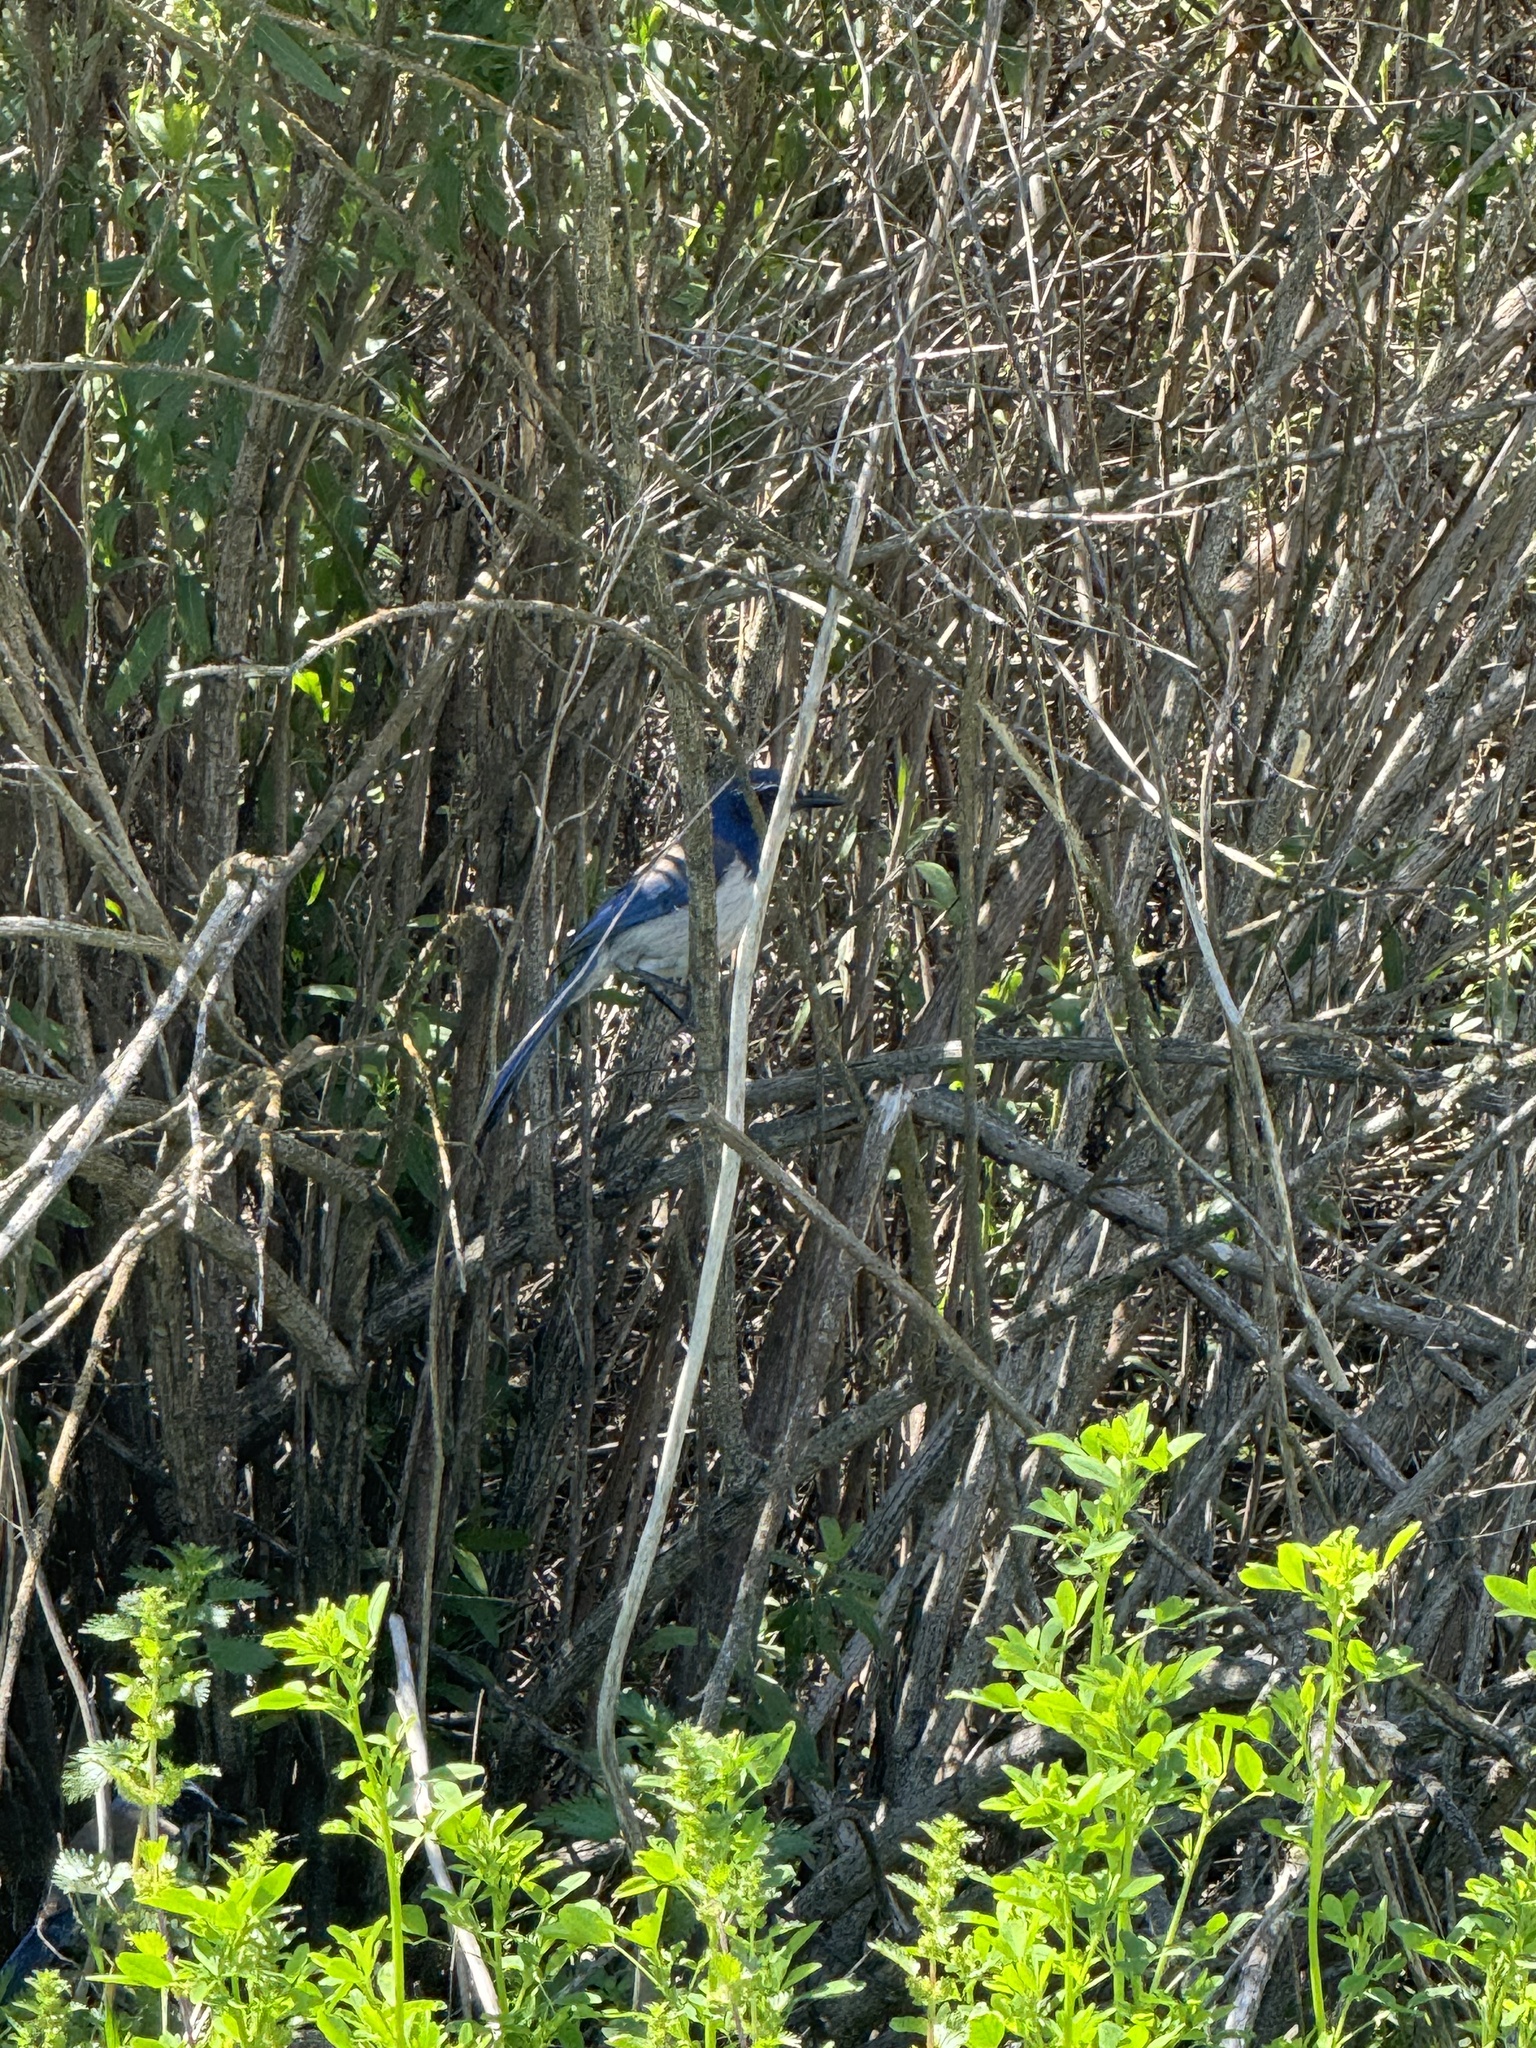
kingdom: Animalia
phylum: Chordata
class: Aves
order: Passeriformes
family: Corvidae
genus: Aphelocoma
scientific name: Aphelocoma californica
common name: California scrub-jay
